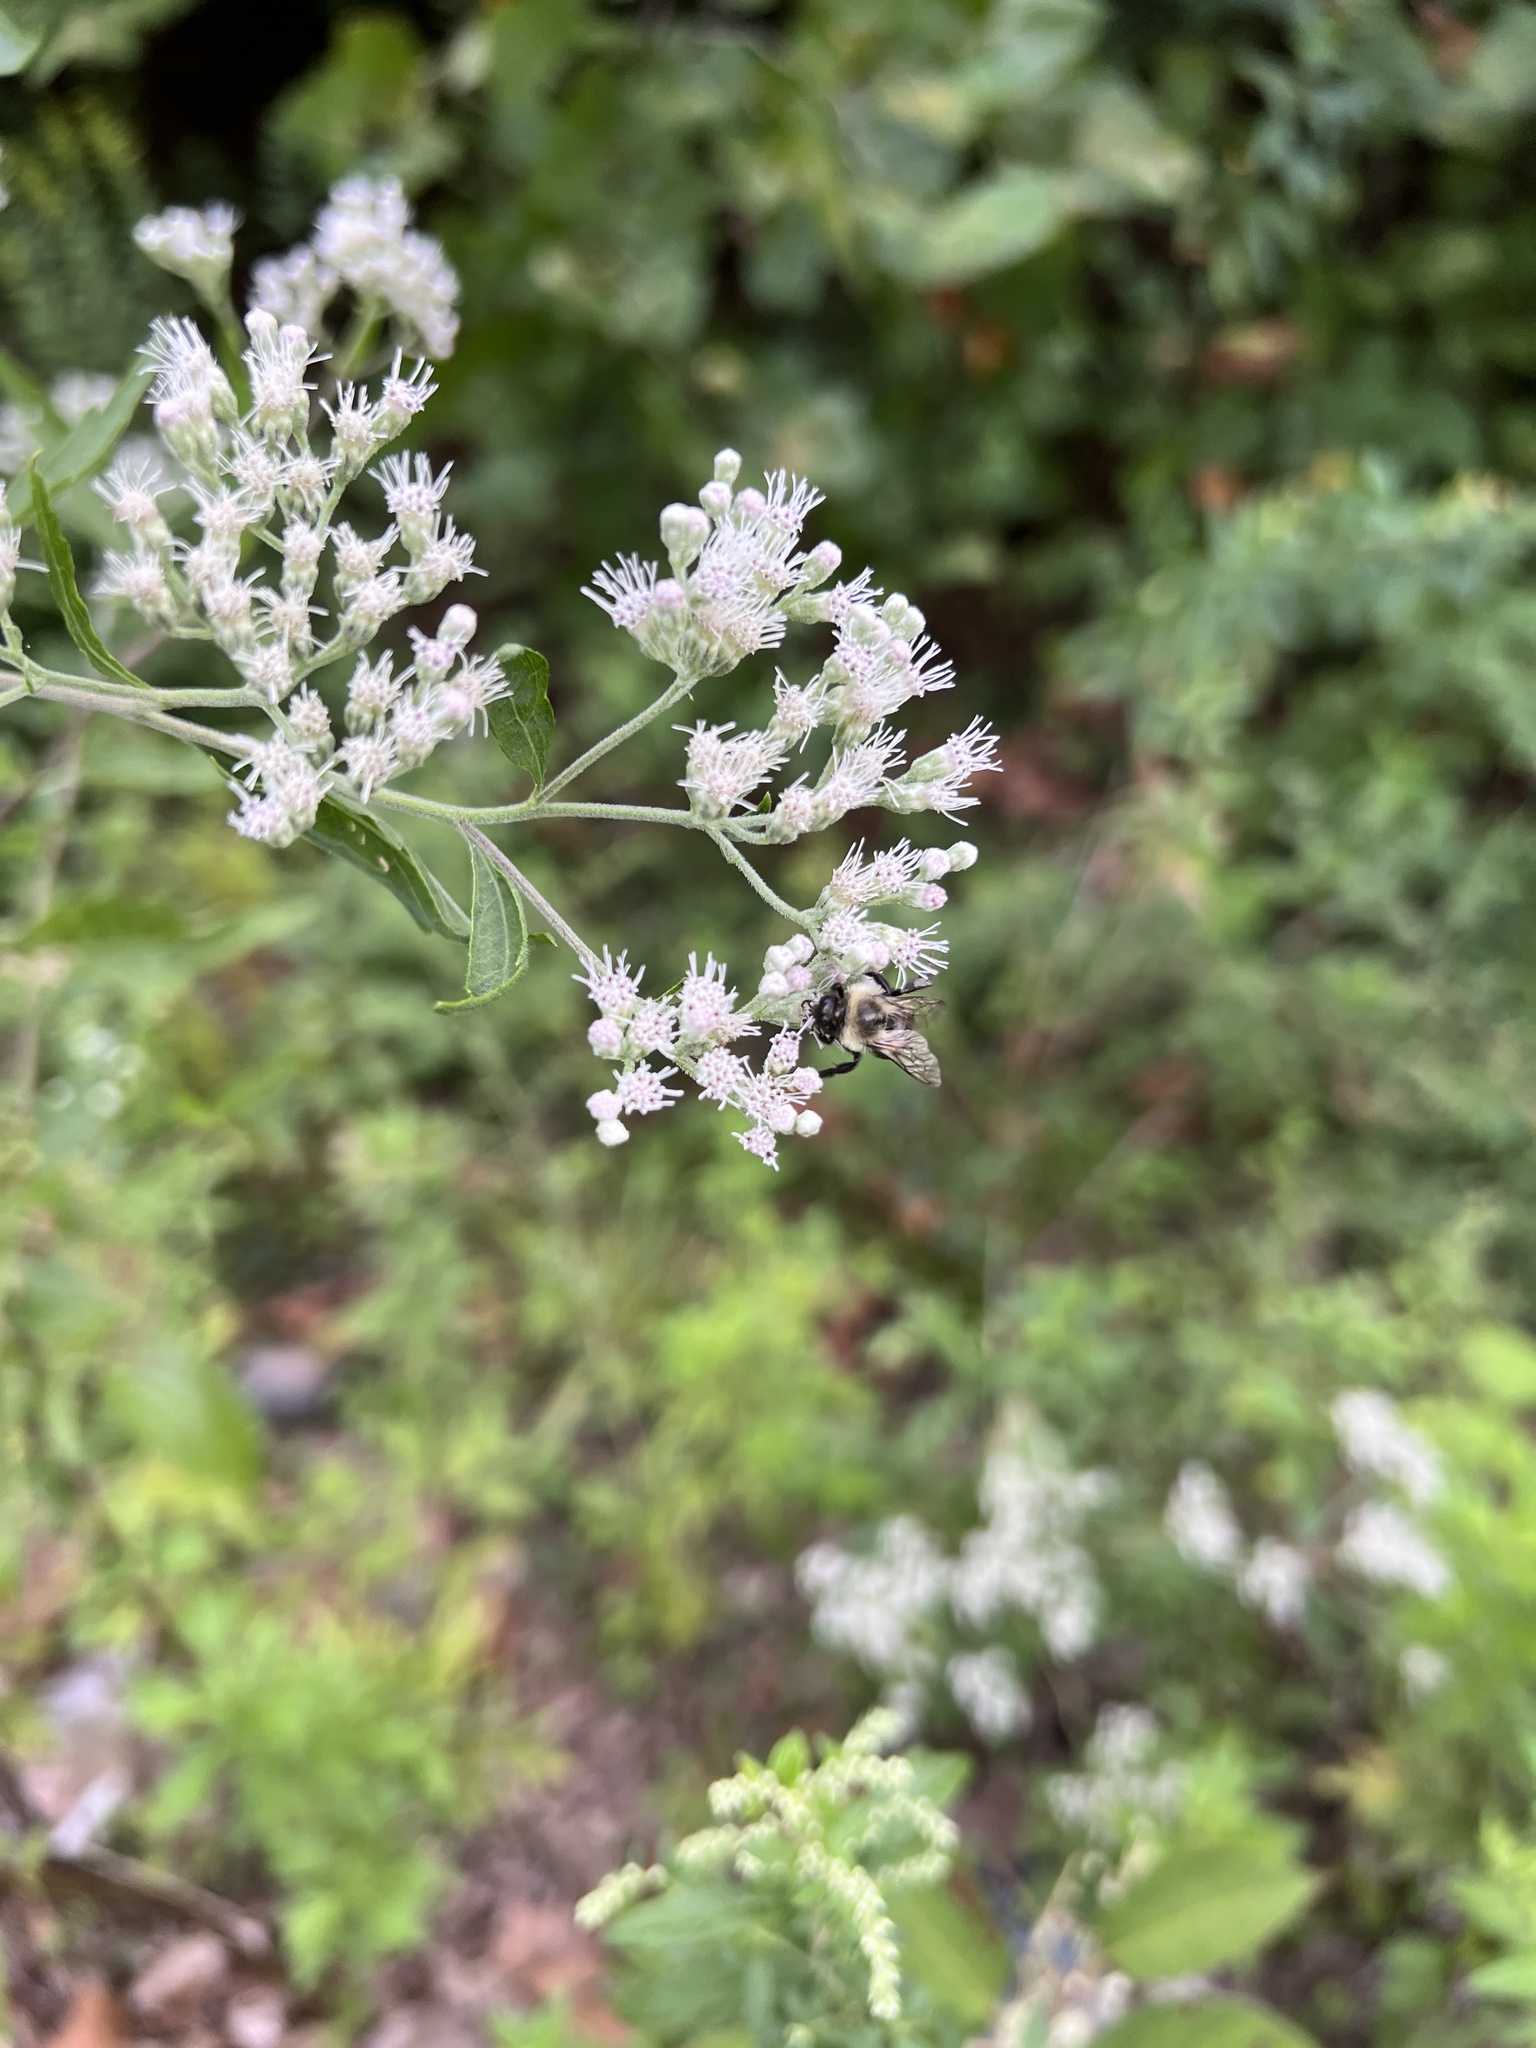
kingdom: Plantae
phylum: Tracheophyta
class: Magnoliopsida
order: Asterales
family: Asteraceae
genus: Eupatorium
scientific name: Eupatorium serotinum
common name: Late boneset
